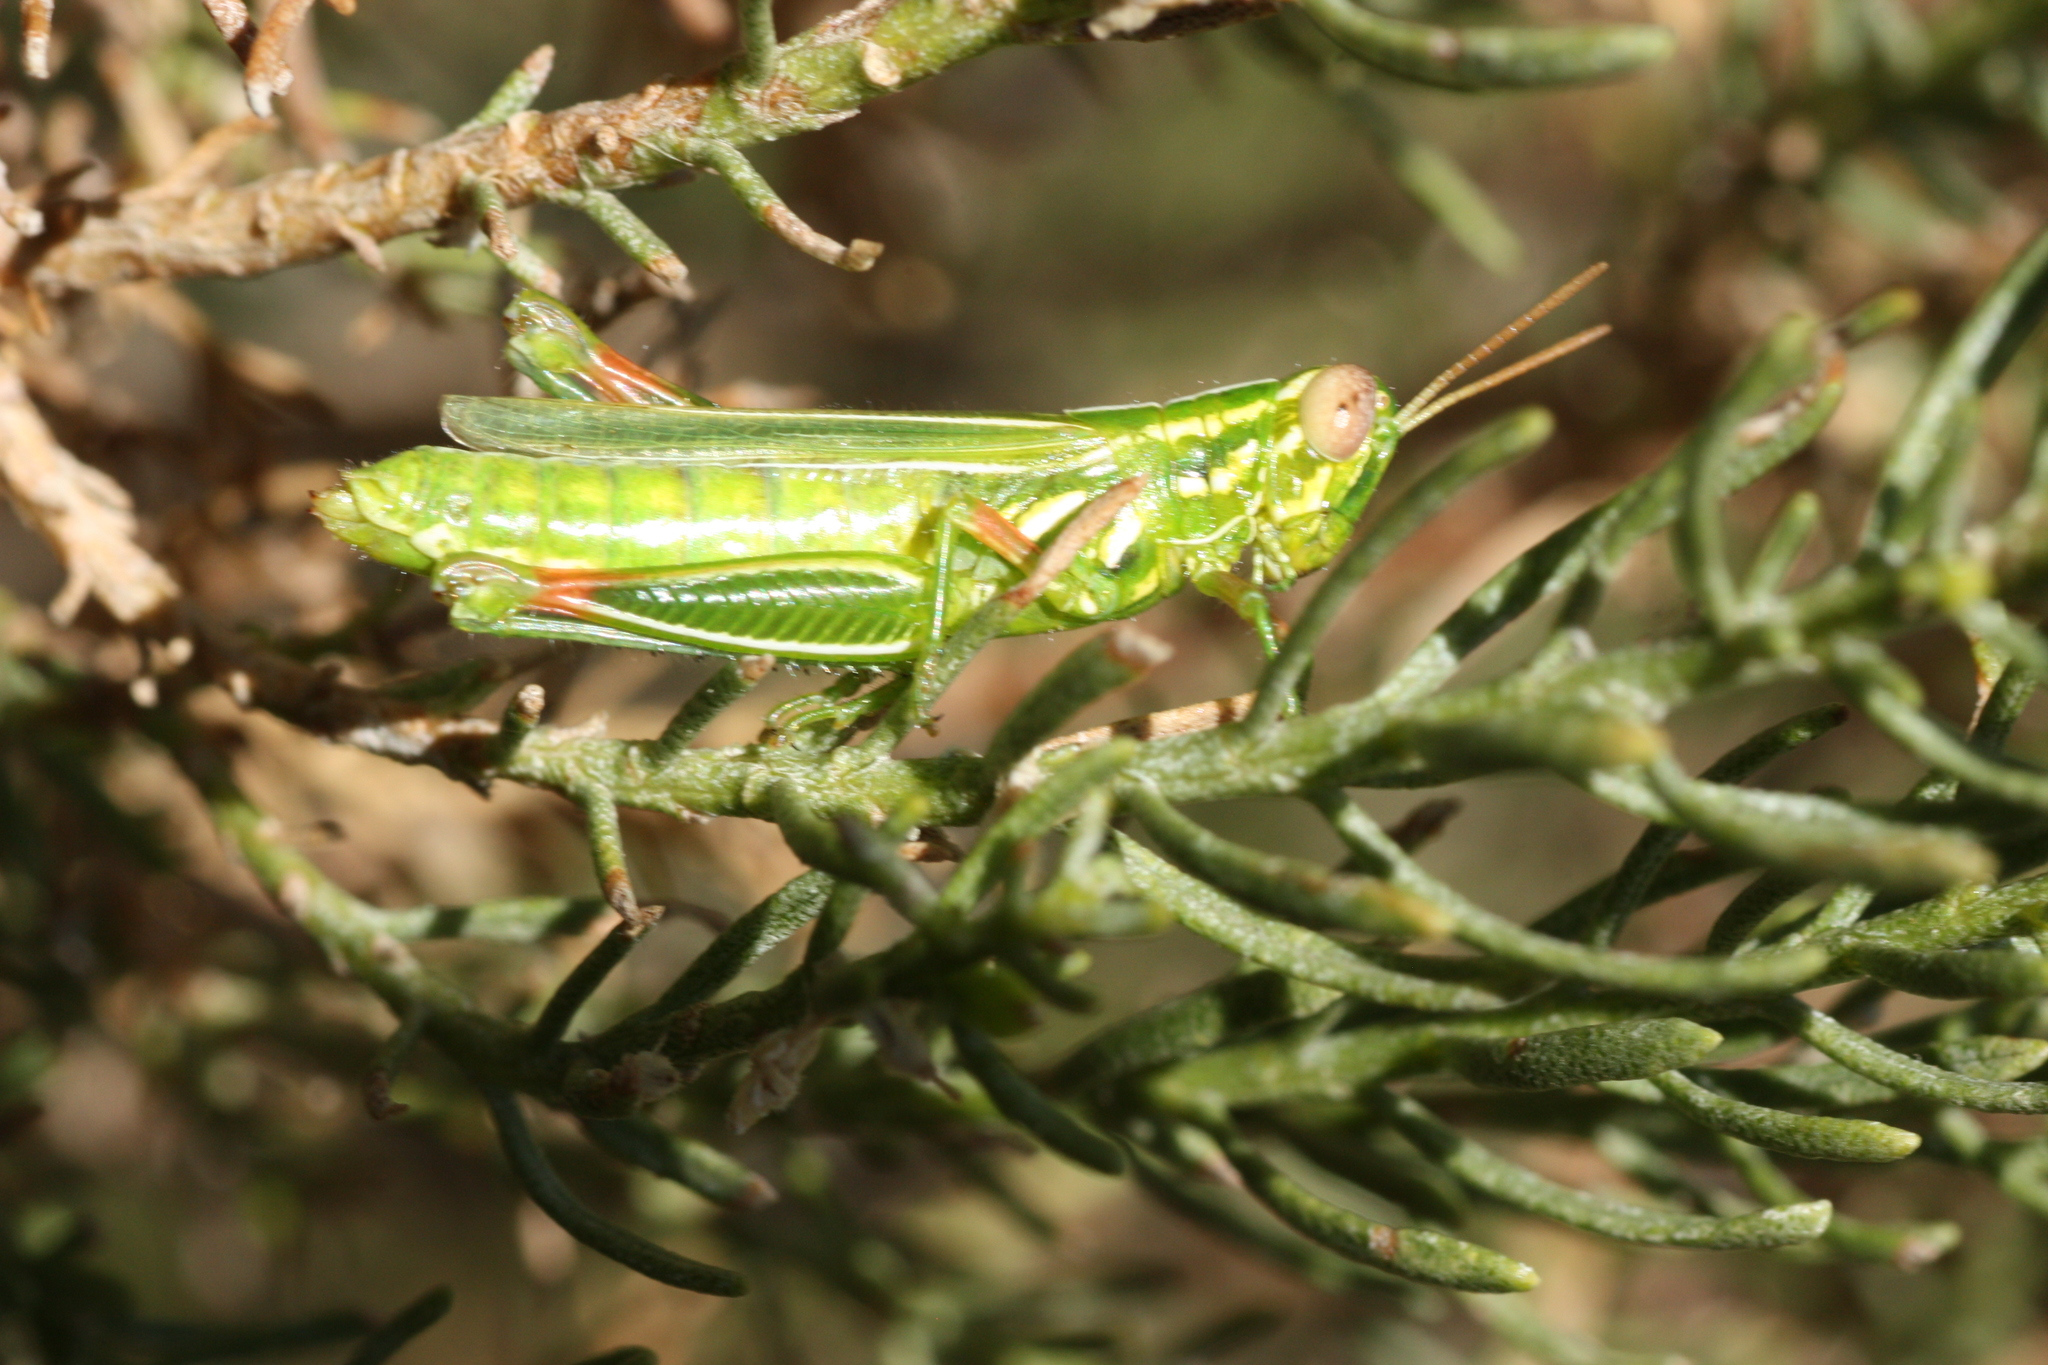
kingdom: Animalia
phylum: Arthropoda
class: Insecta
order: Orthoptera
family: Acrididae
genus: Hesperotettix
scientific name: Hesperotettix viridis
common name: Meadow purple-striped grasshopper
